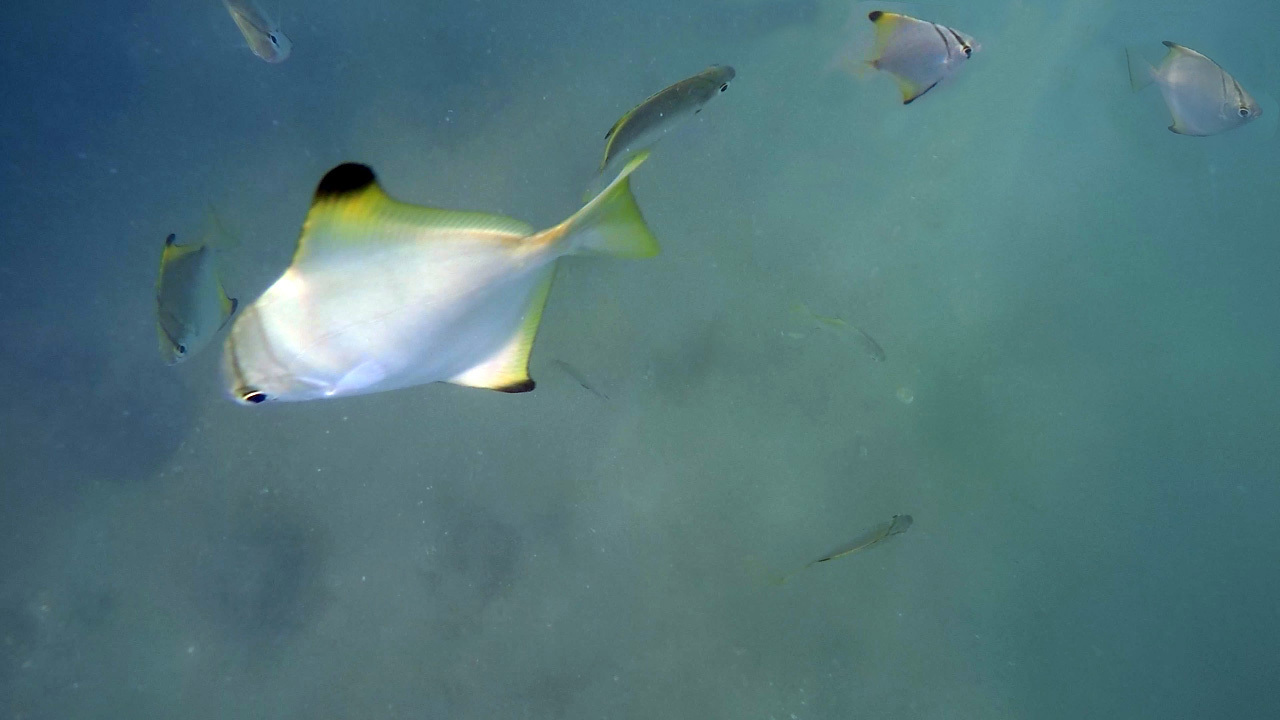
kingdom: Animalia
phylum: Chordata
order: Perciformes
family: Monodactylidae
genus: Monodactylus
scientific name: Monodactylus argenteus
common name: Silver moony
